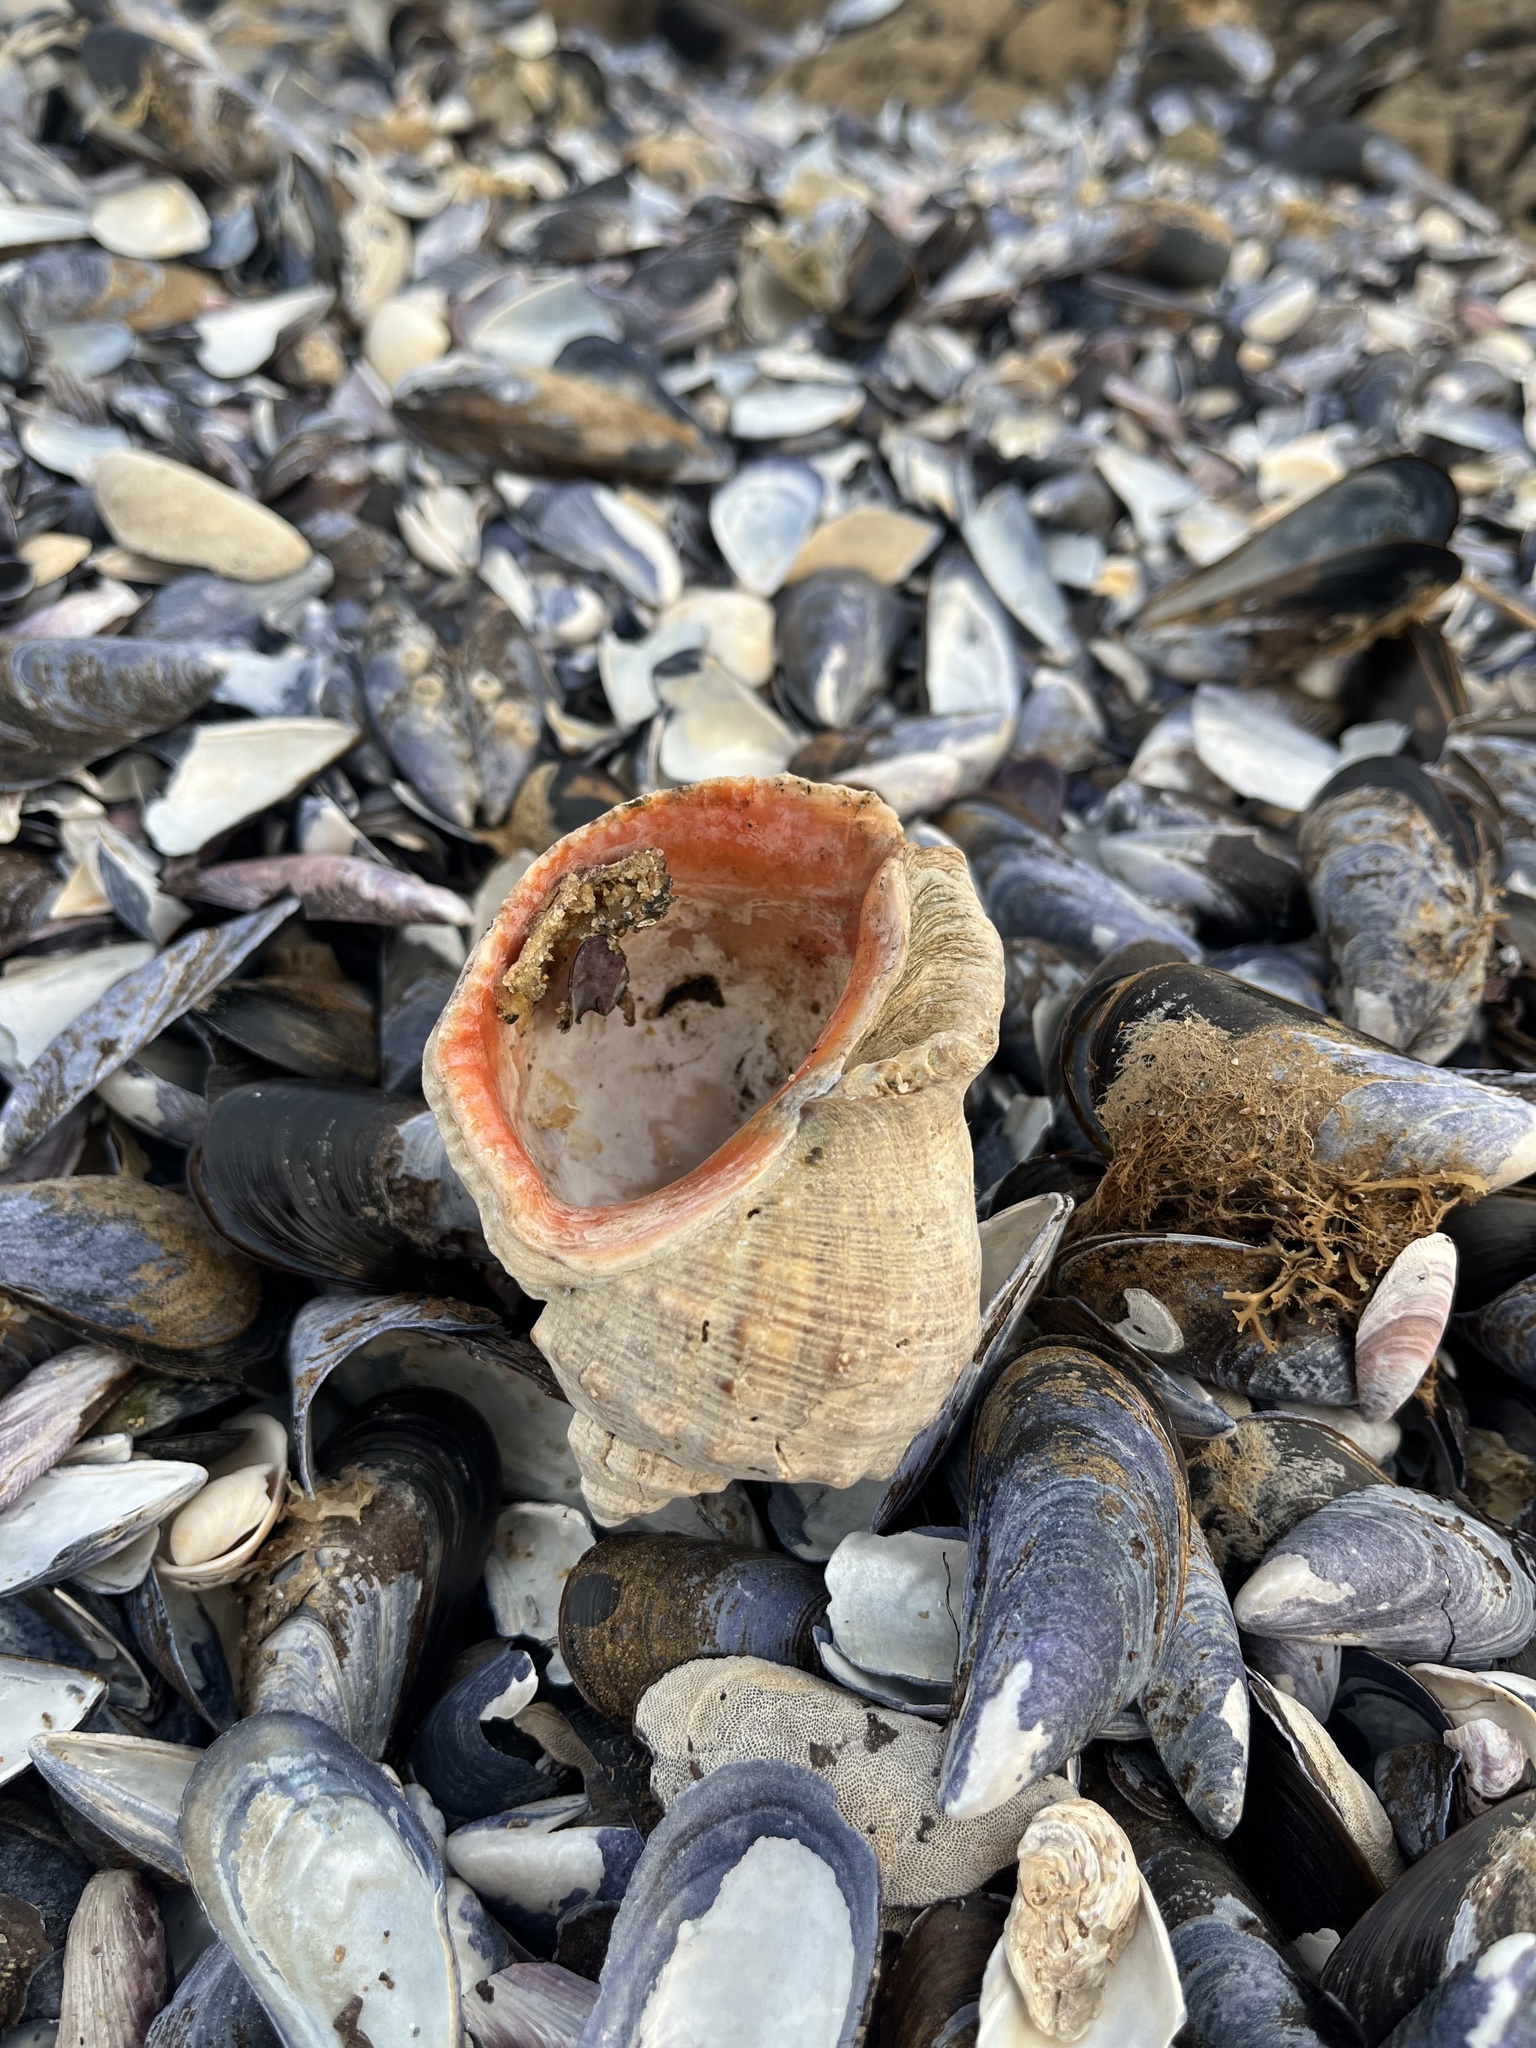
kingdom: Animalia
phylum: Mollusca
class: Gastropoda
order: Neogastropoda
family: Muricidae
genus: Rapana
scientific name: Rapana venosa
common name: Veined rapa whelk
